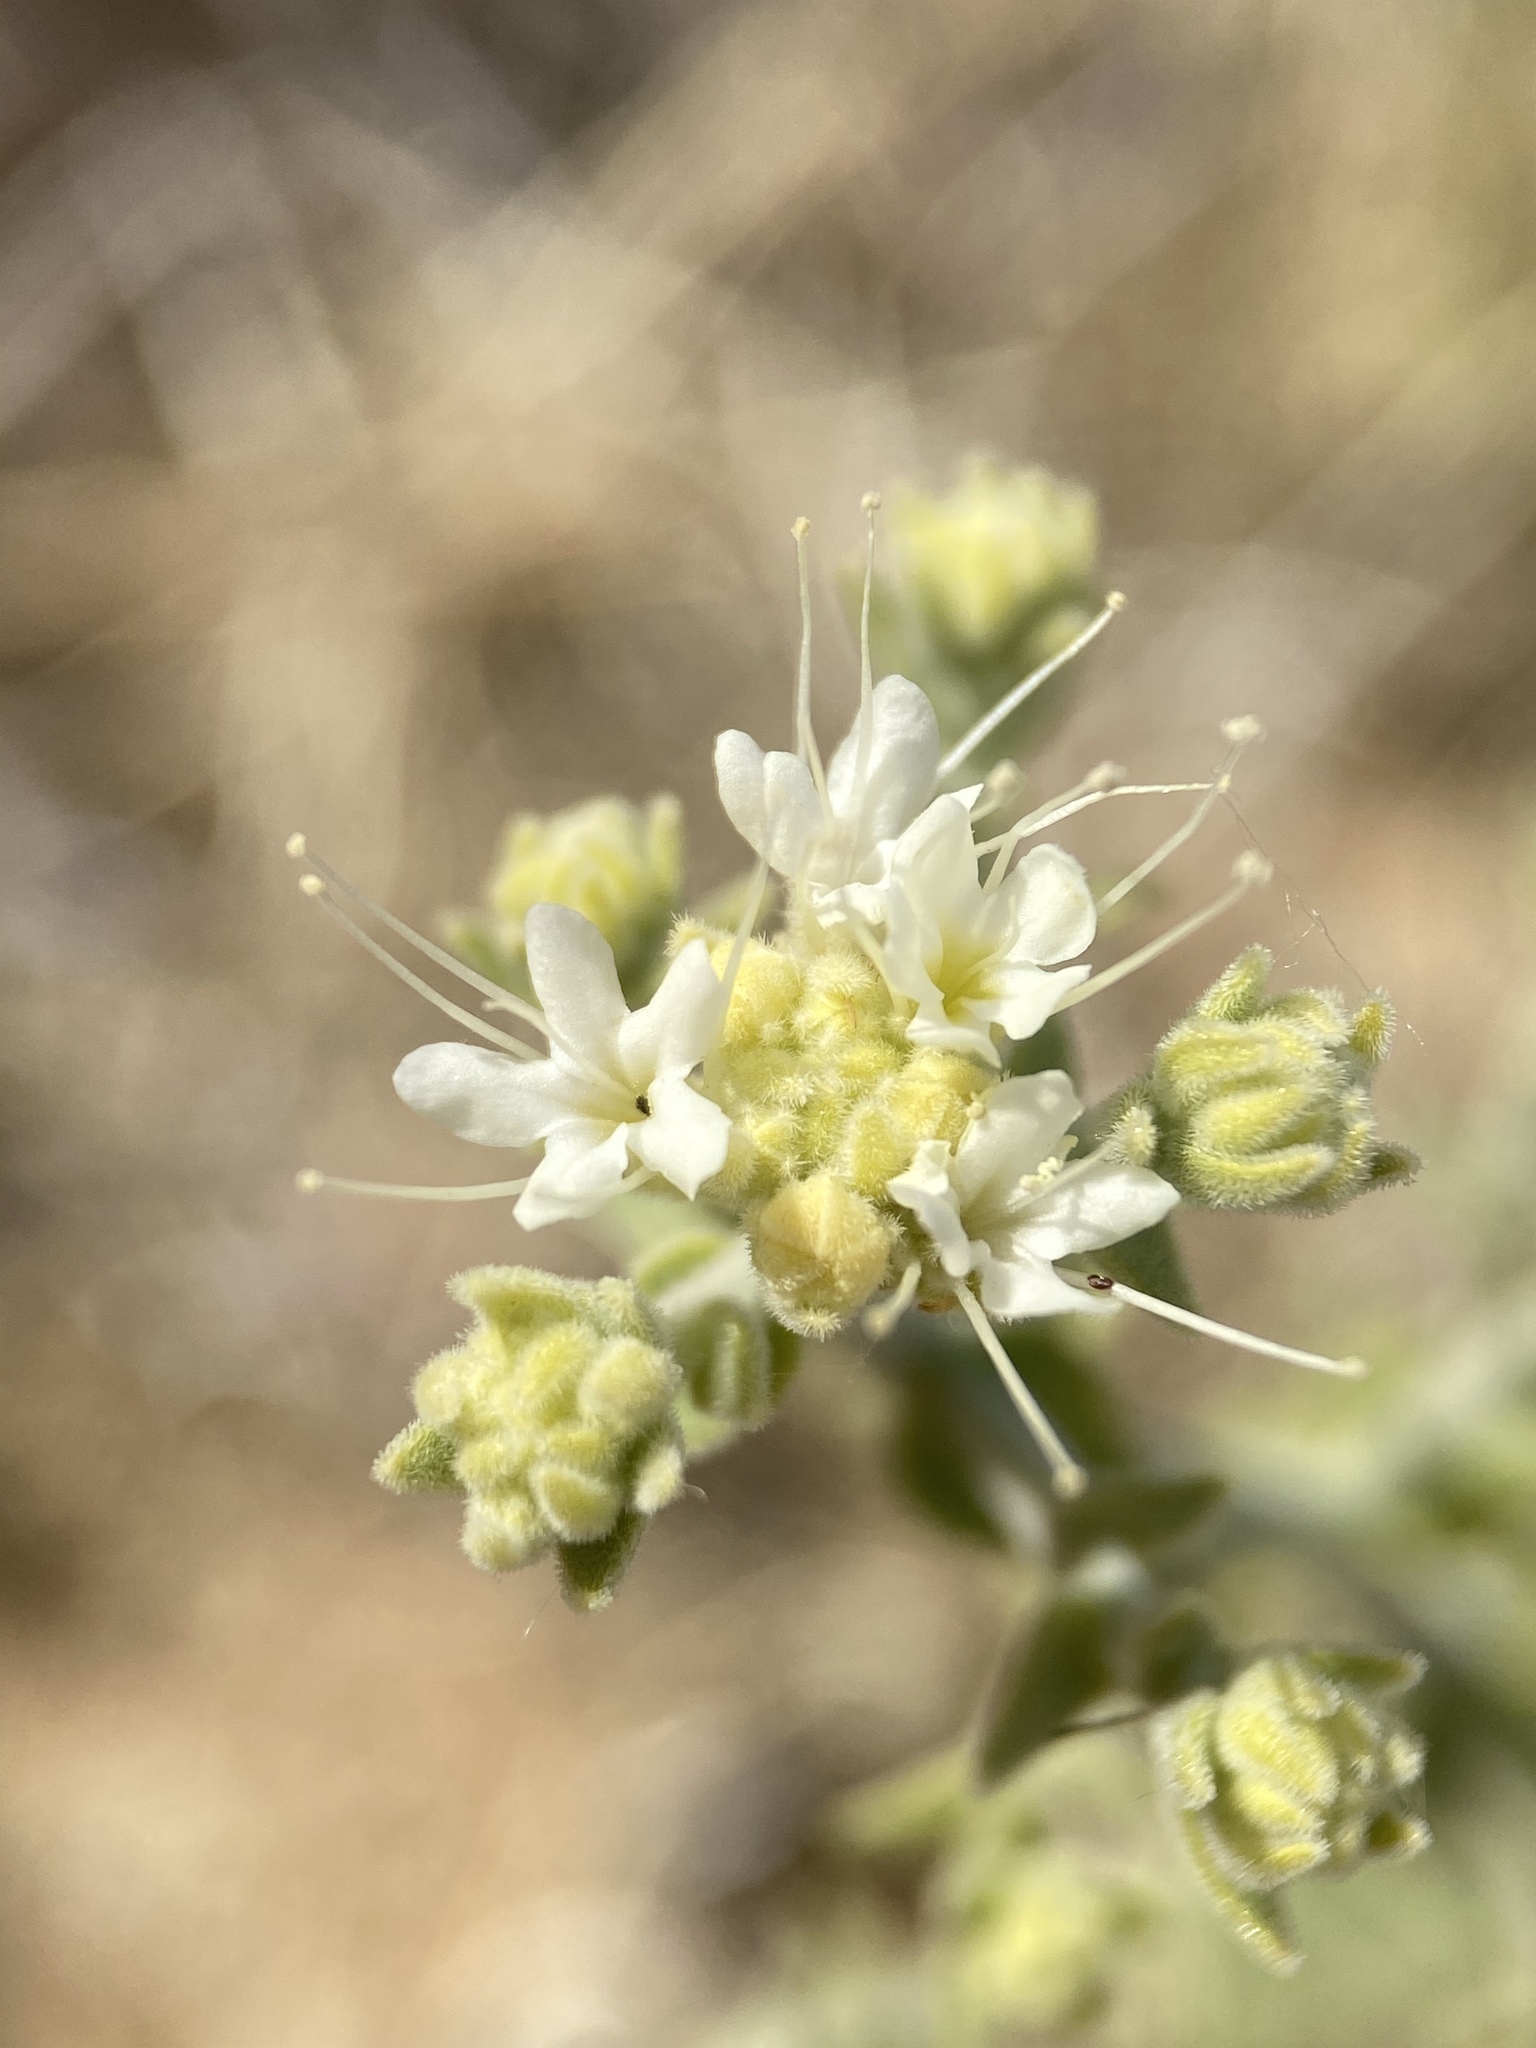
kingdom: Plantae
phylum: Tracheophyta
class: Magnoliopsida
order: Cornales
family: Loasaceae
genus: Petalonyx
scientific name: Petalonyx thurberi
